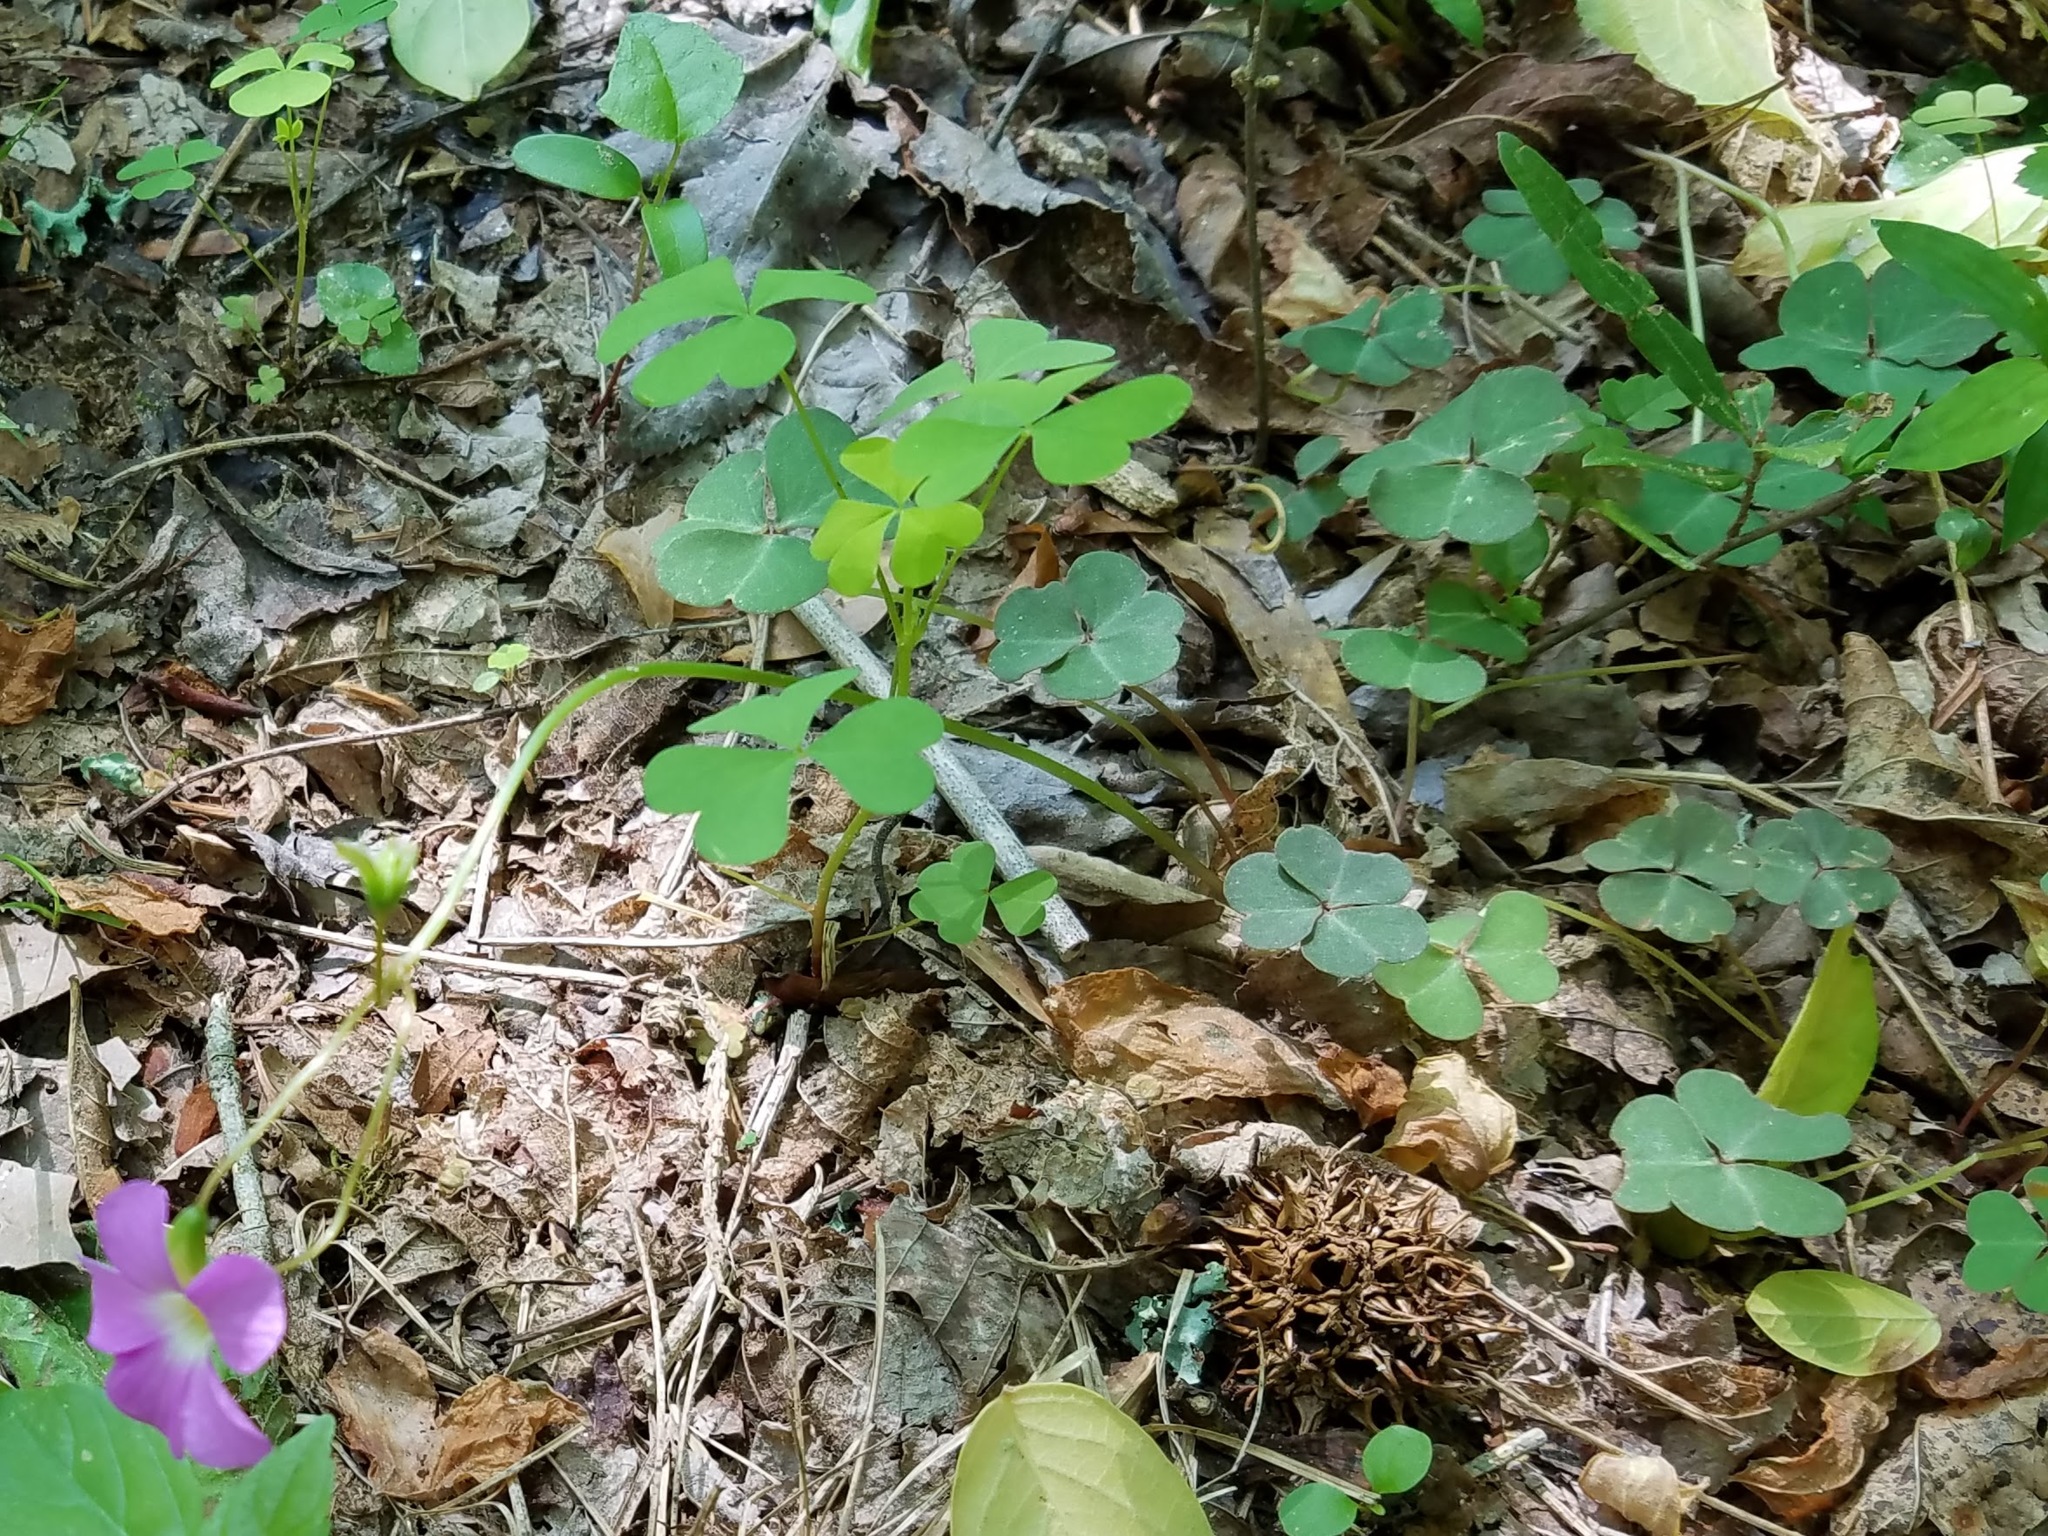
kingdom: Plantae
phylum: Tracheophyta
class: Magnoliopsida
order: Oxalidales
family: Oxalidaceae
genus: Oxalis
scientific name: Oxalis violacea
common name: Violet wood-sorrel
